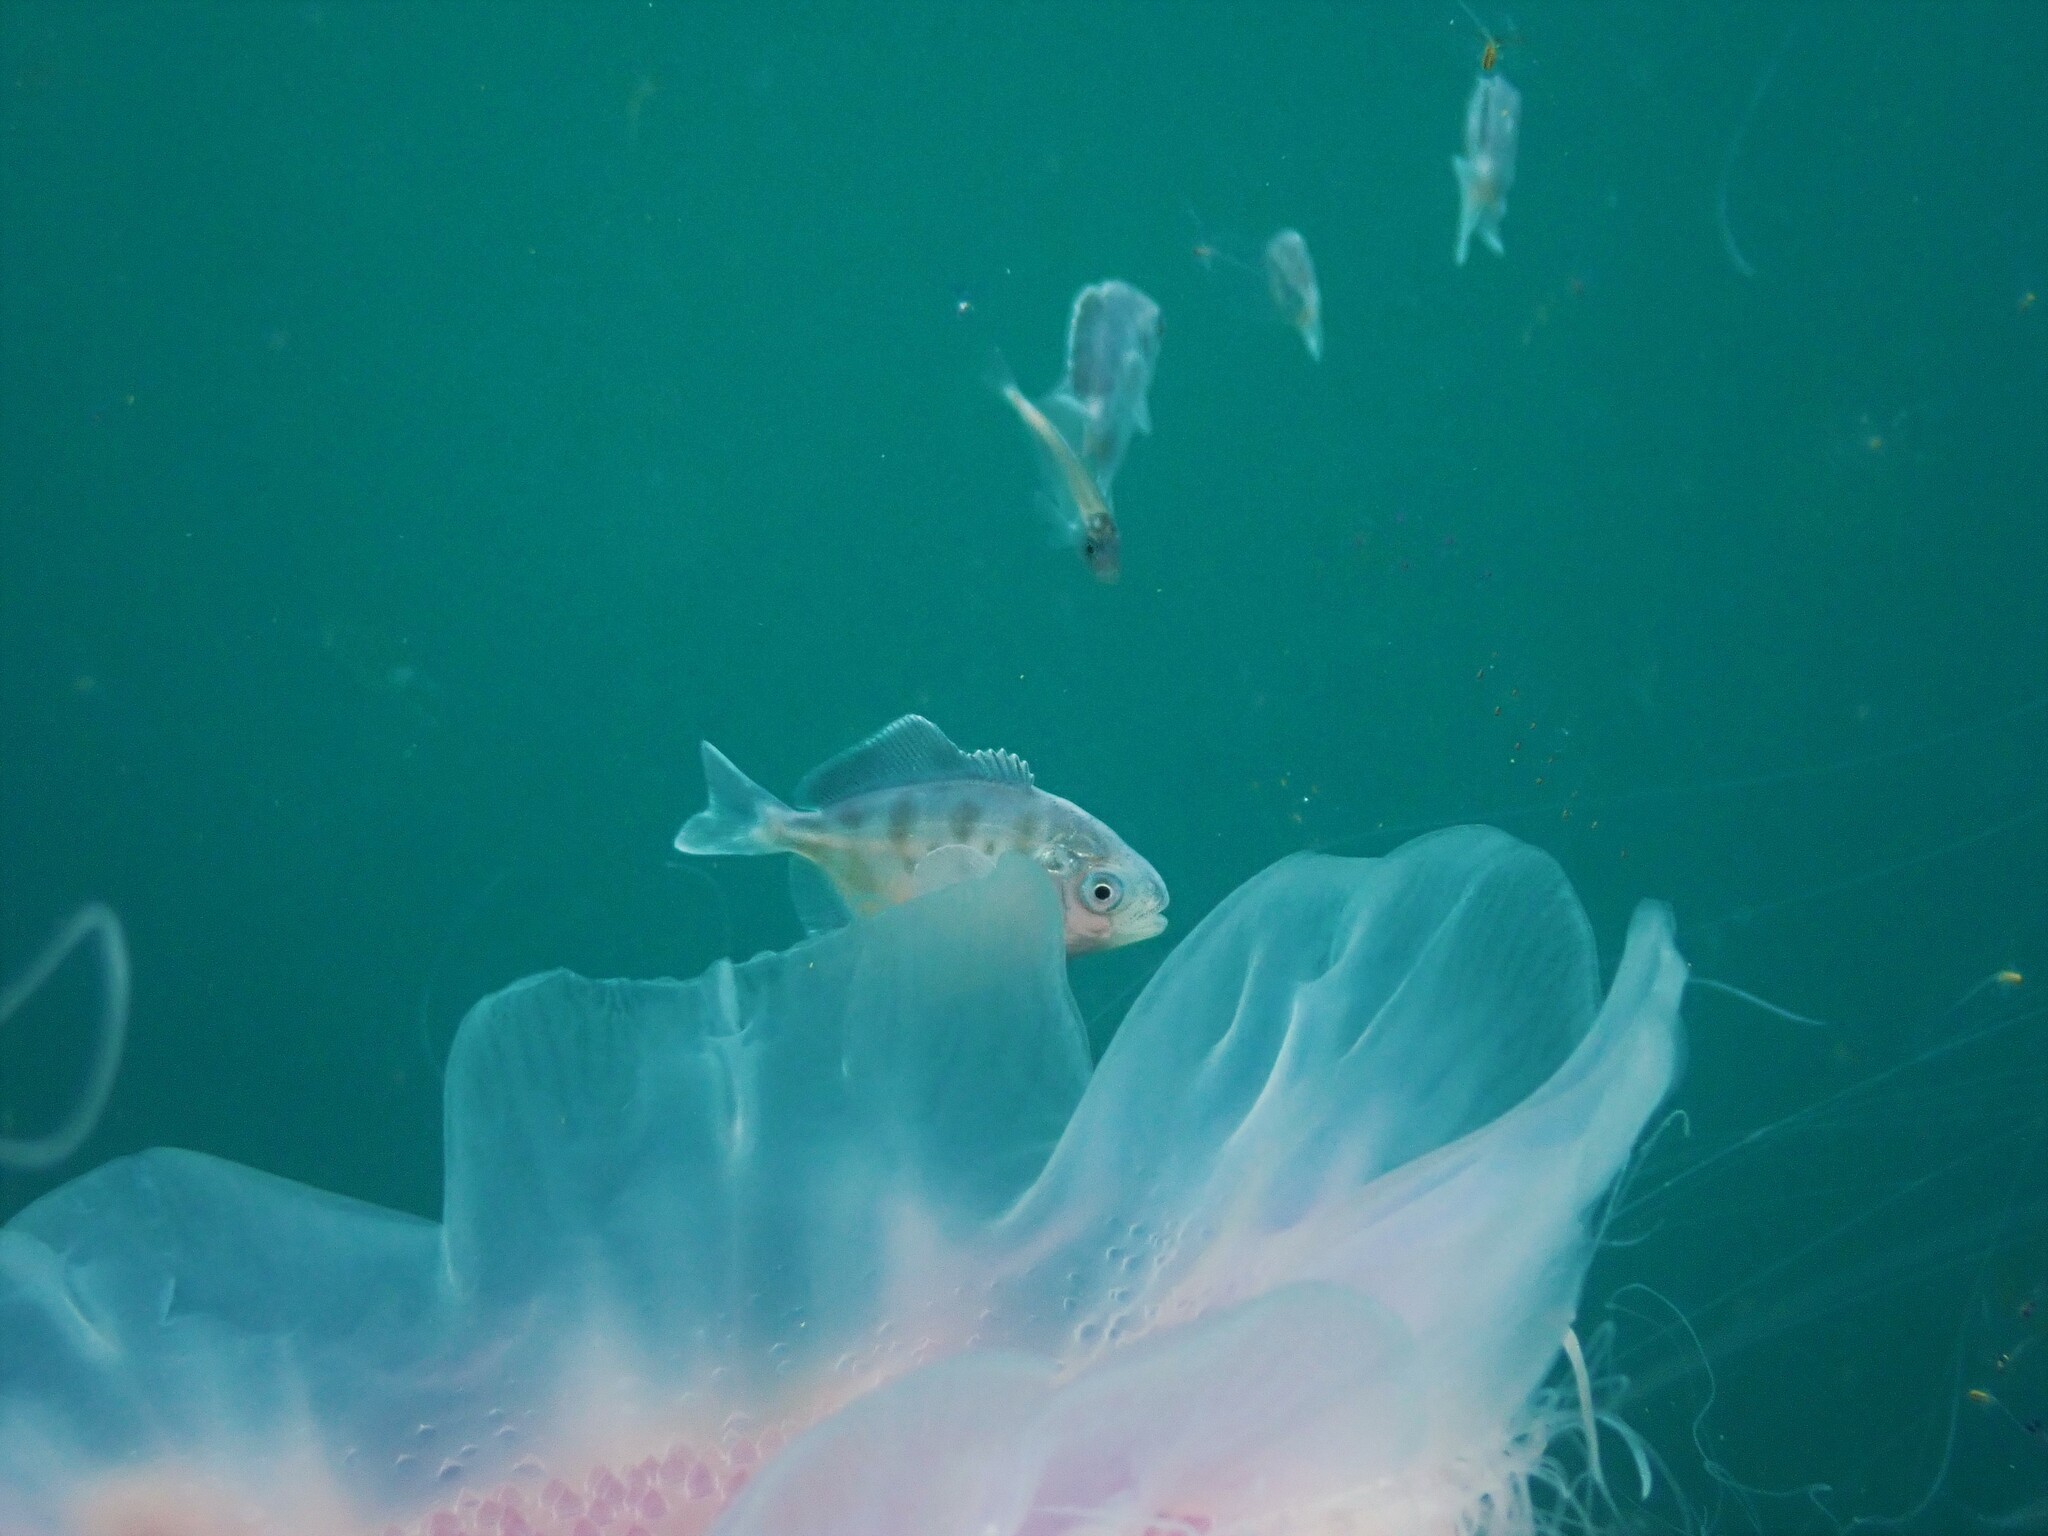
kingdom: Animalia
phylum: Chordata
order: Perciformes
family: Centrolophidae
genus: Seriolella
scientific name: Seriolella brama
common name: Blue warehou
